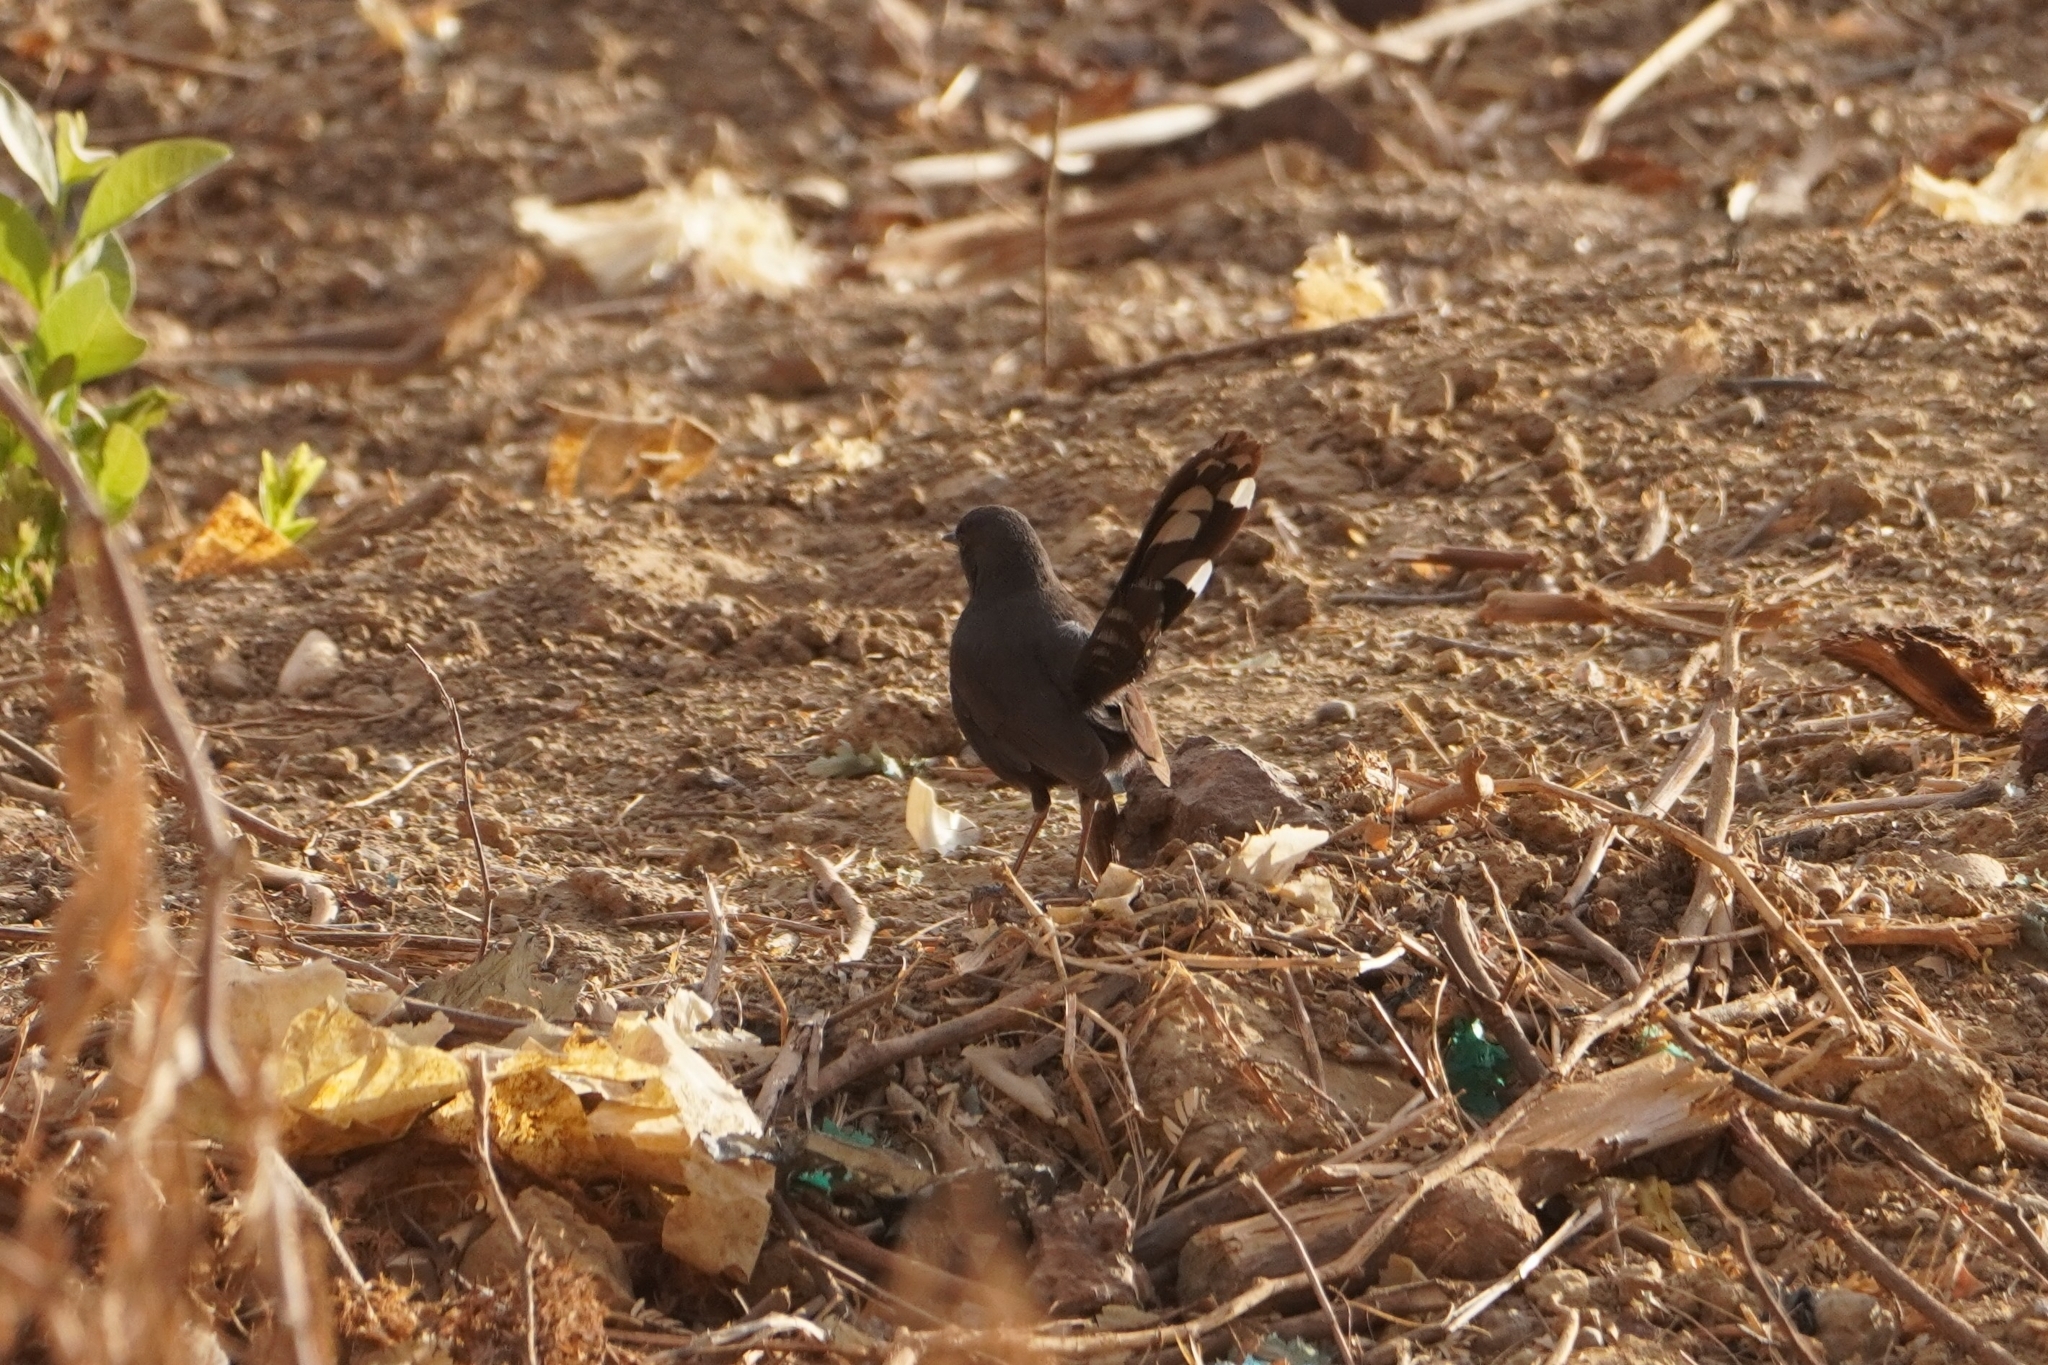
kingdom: Animalia
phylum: Chordata
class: Aves
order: Passeriformes
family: Muscicapidae
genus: Cercotrichas
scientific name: Cercotrichas podobe
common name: Black scrub robin
